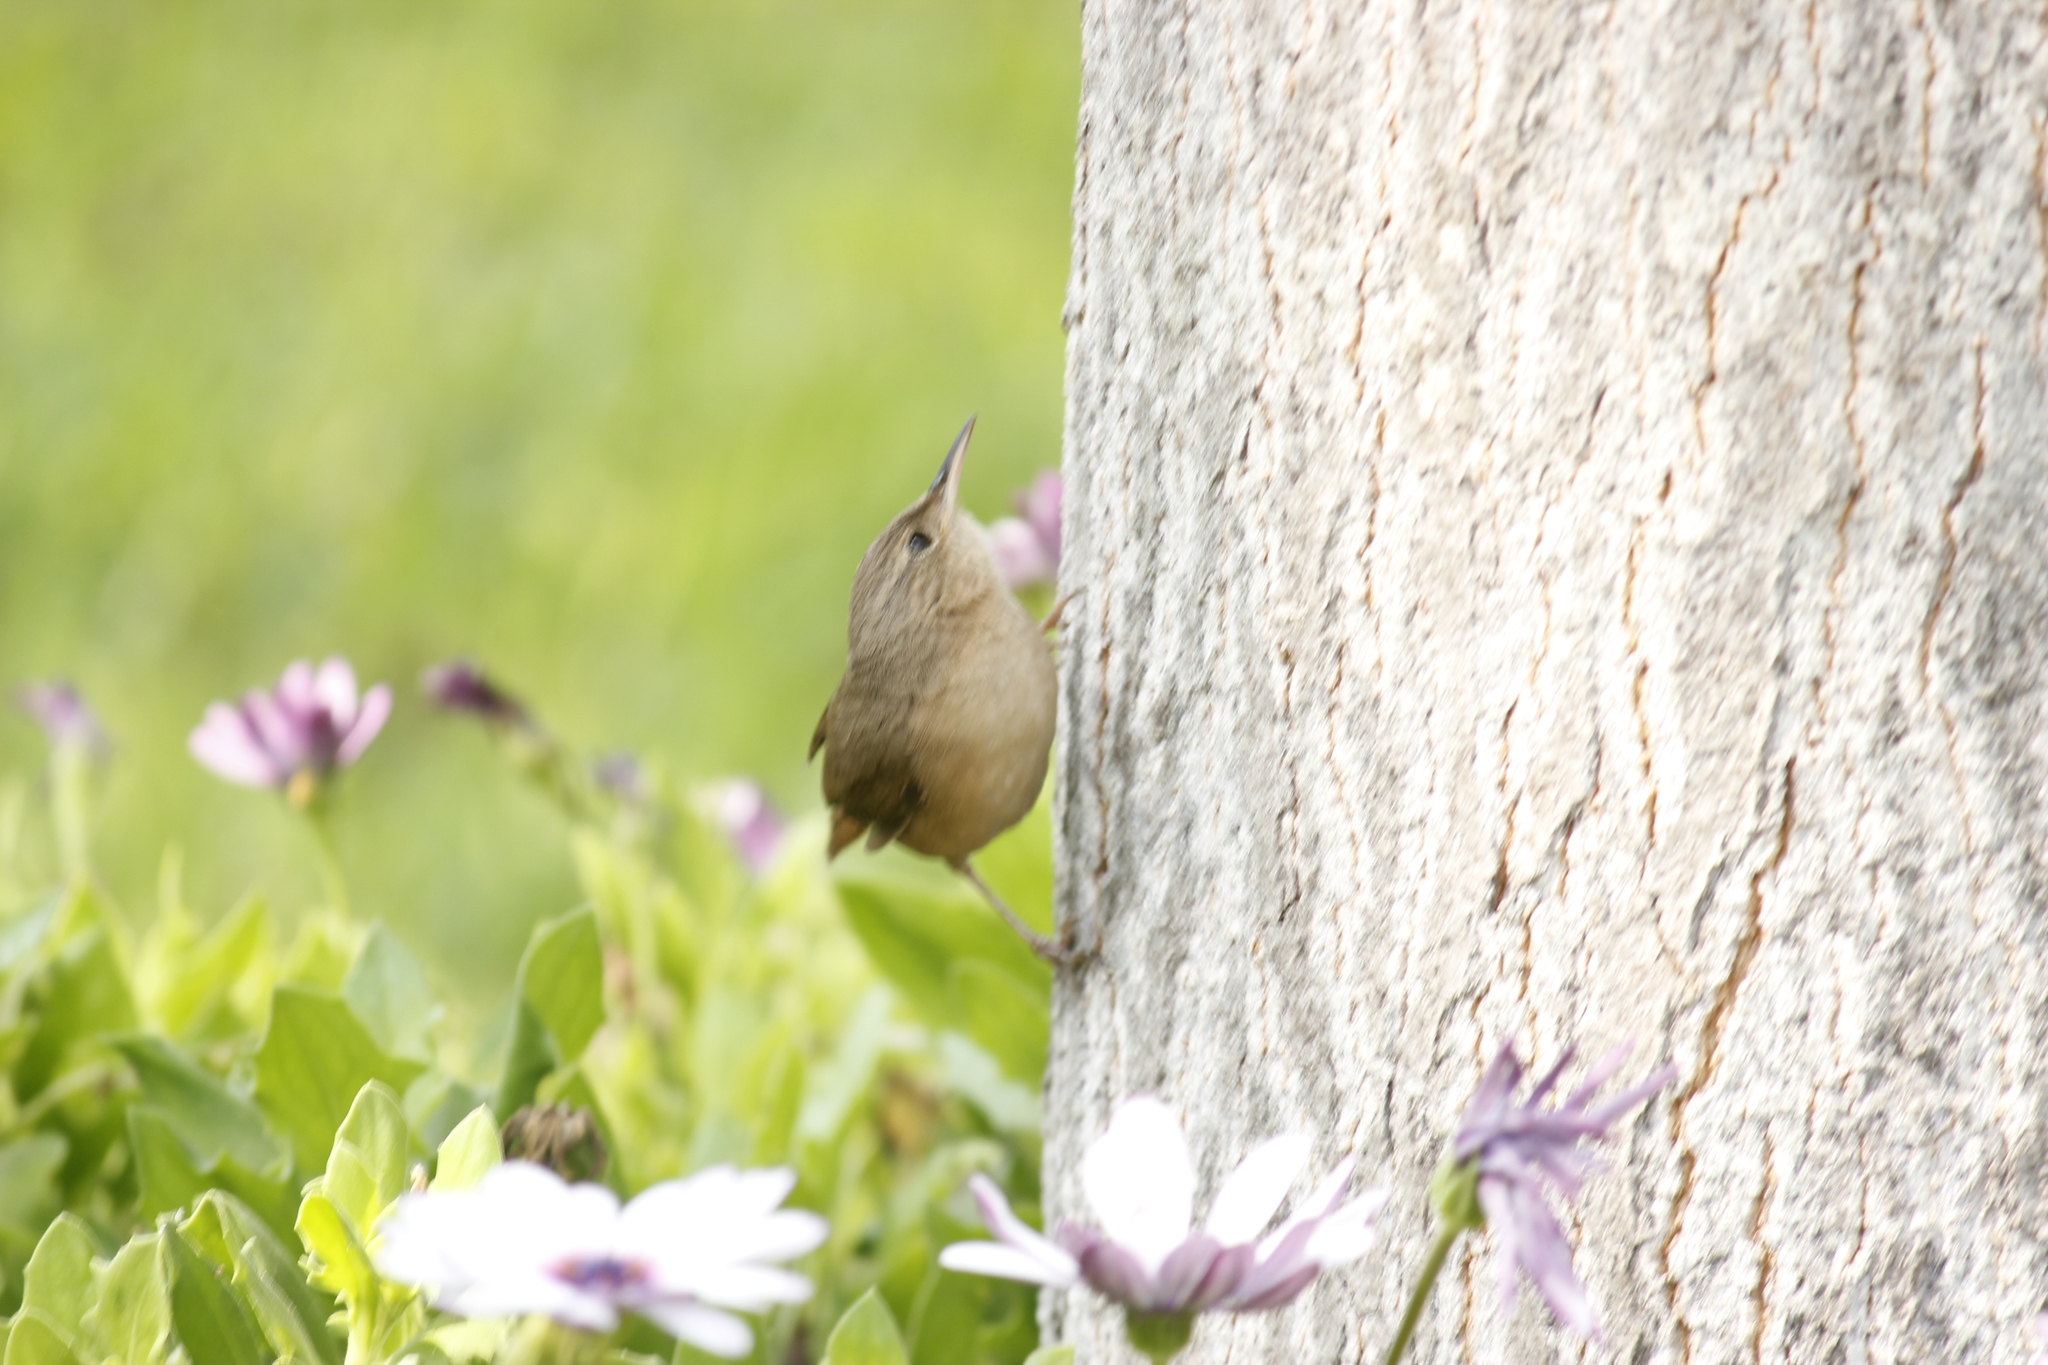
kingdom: Animalia
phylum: Chordata
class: Aves
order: Passeriformes
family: Troglodytidae
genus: Troglodytes
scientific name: Troglodytes aedon
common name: House wren
